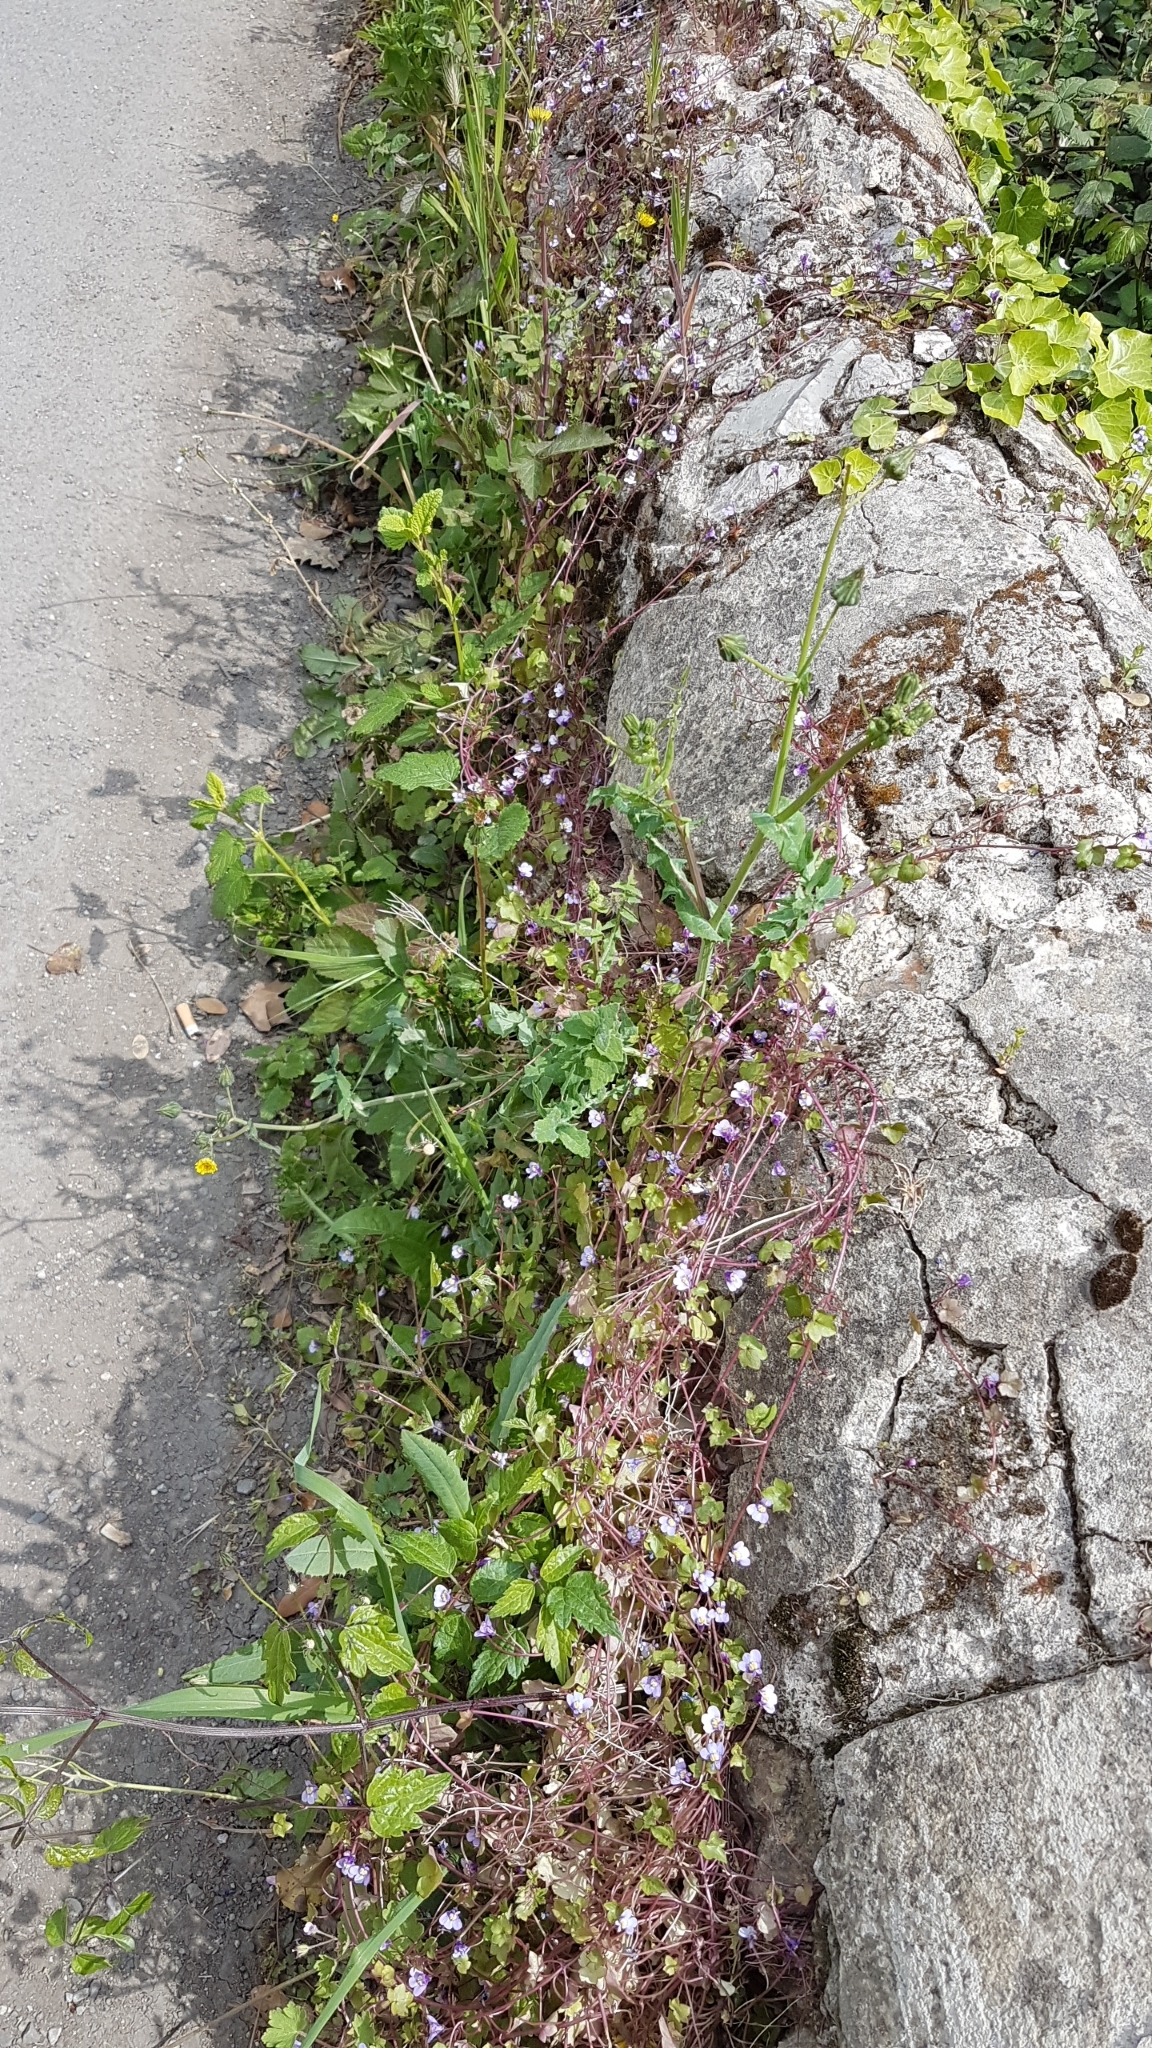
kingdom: Plantae
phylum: Tracheophyta
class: Magnoliopsida
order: Lamiales
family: Plantaginaceae
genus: Cymbalaria
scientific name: Cymbalaria muralis
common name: Ivy-leaved toadflax
